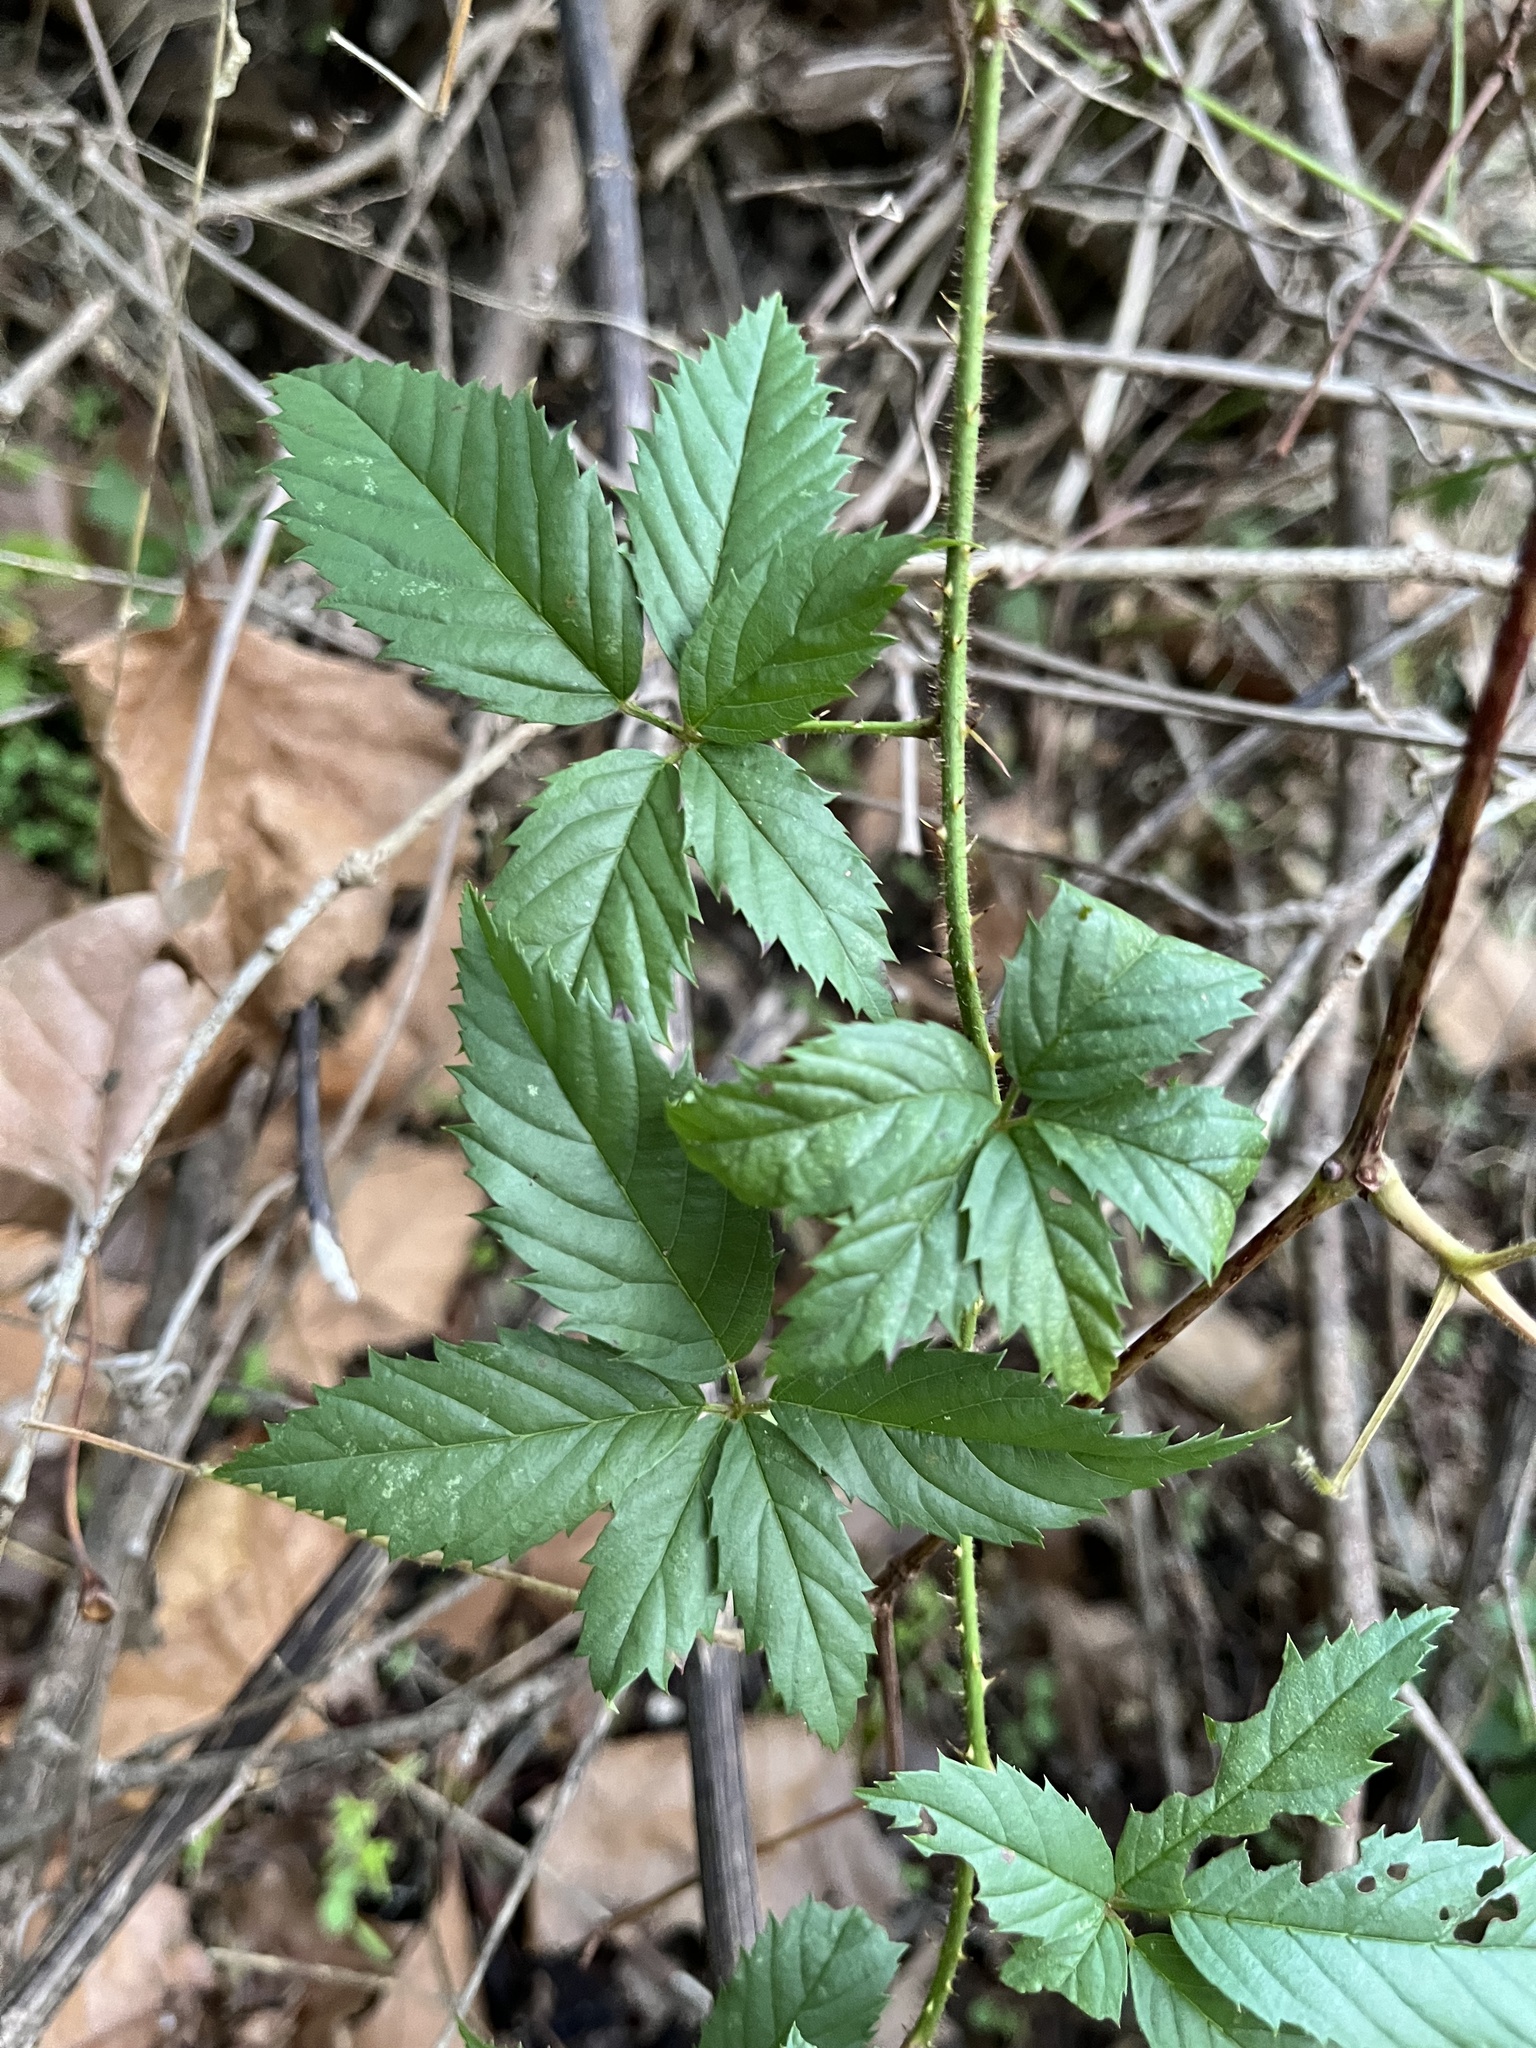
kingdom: Plantae
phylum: Tracheophyta
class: Magnoliopsida
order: Rosales
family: Rosaceae
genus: Rubus
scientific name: Rubus trivialis
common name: Southern dewberry
